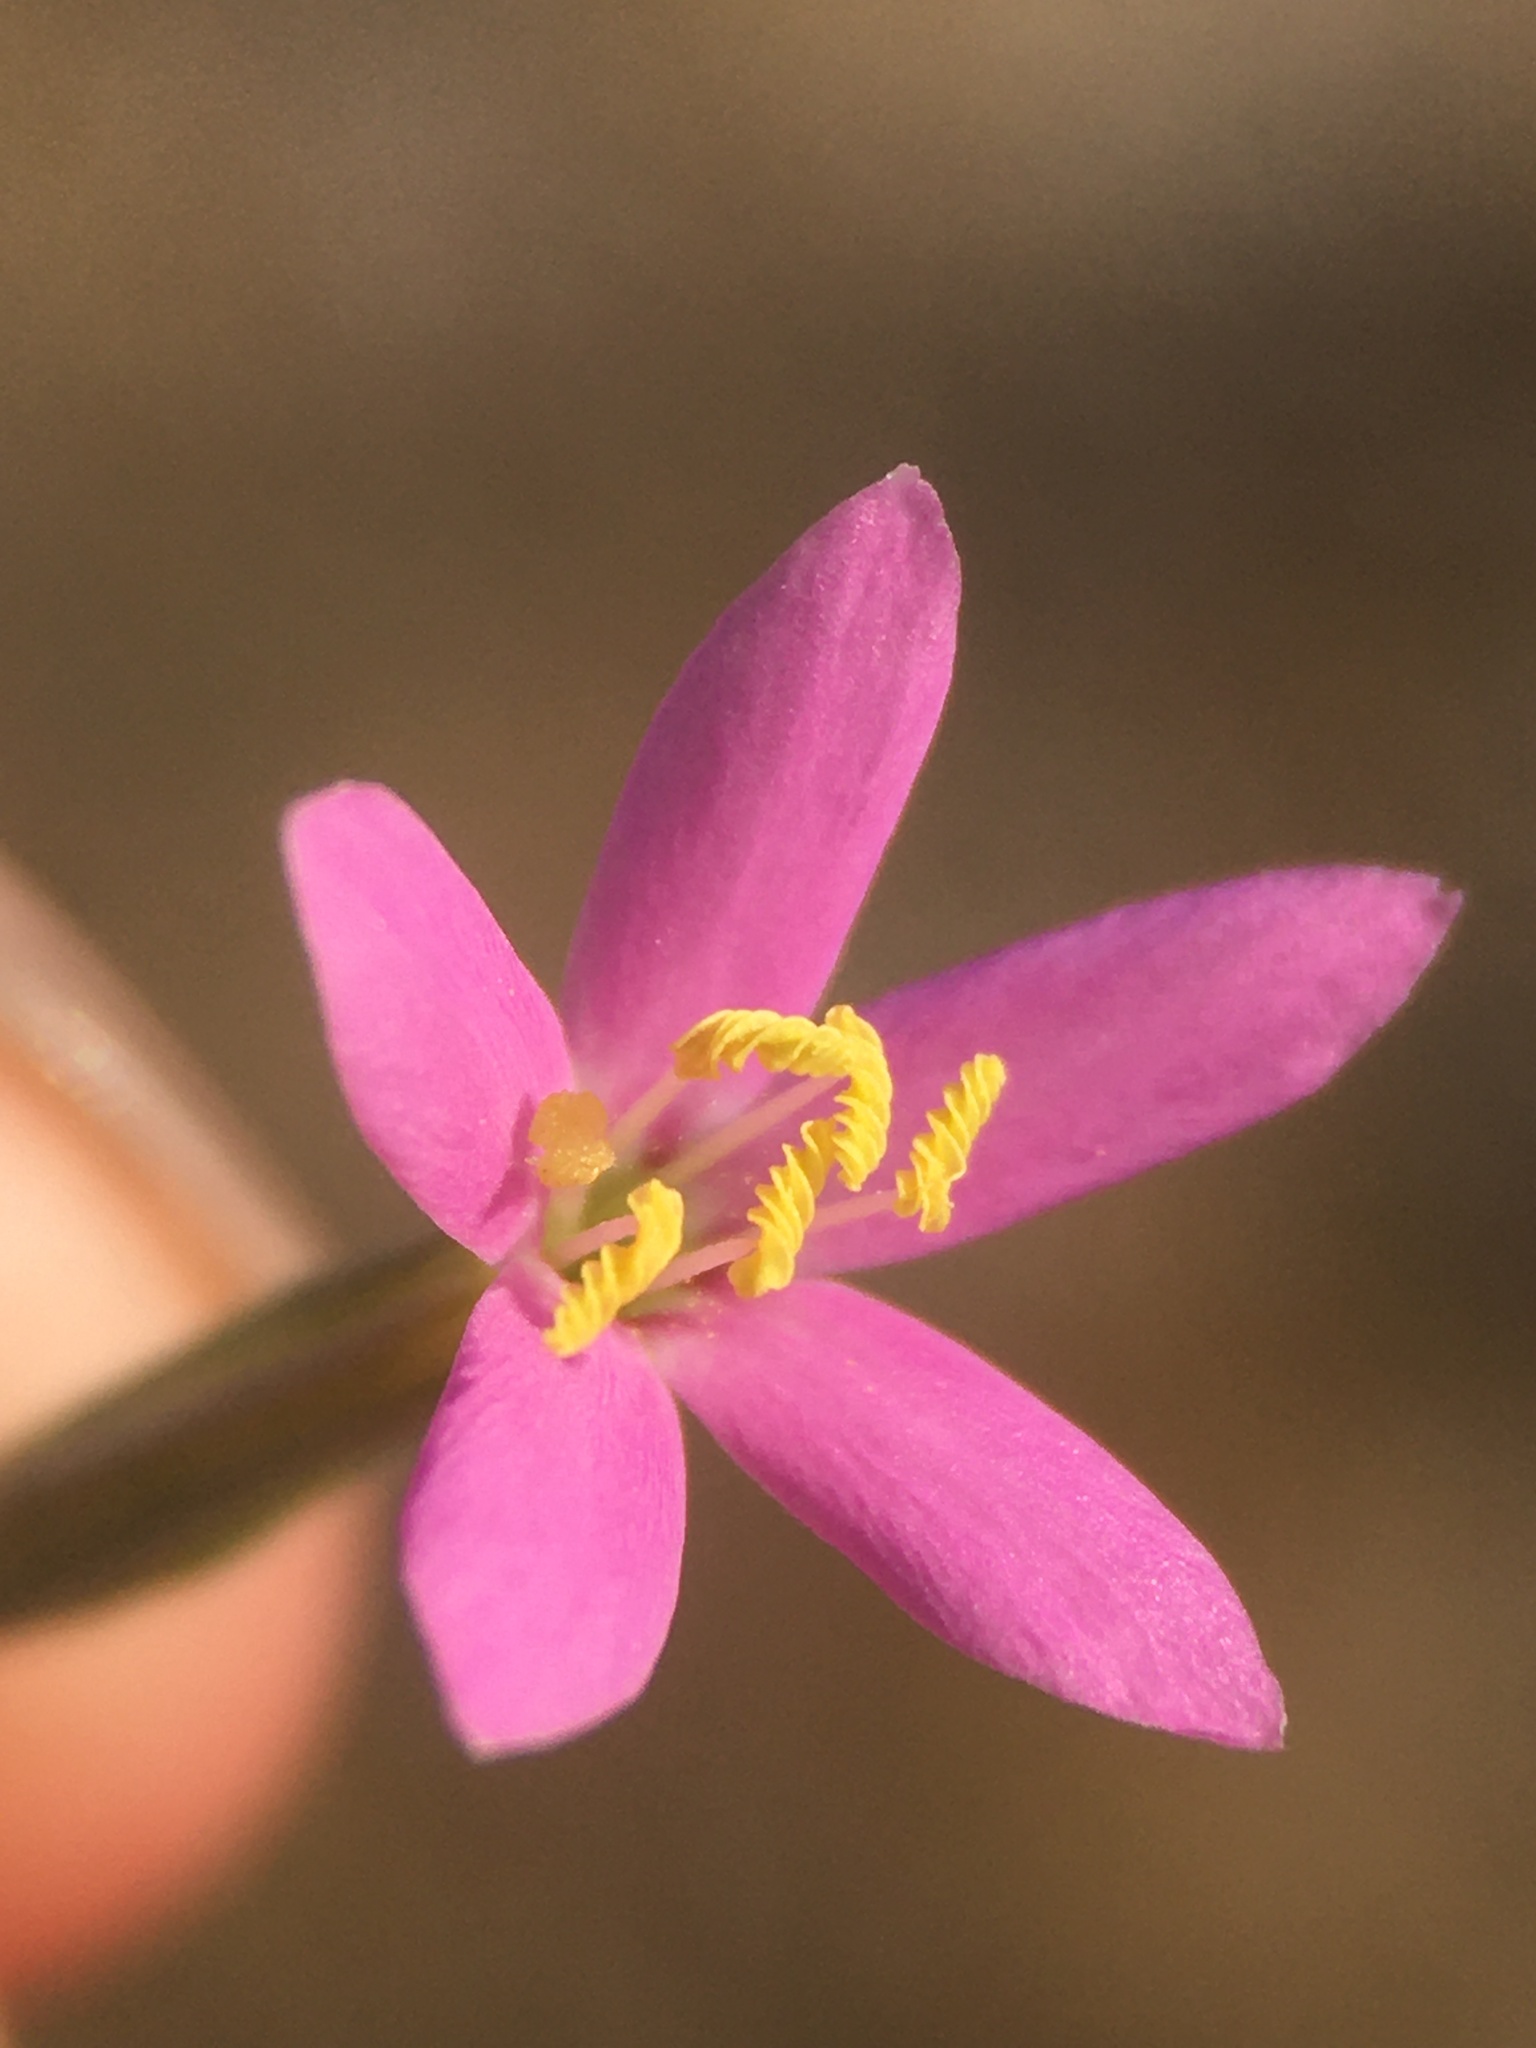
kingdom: Plantae
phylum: Tracheophyta
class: Magnoliopsida
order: Gentianales
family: Gentianaceae
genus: Zeltnera
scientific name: Zeltnera exaltata
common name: Great basin centaury
